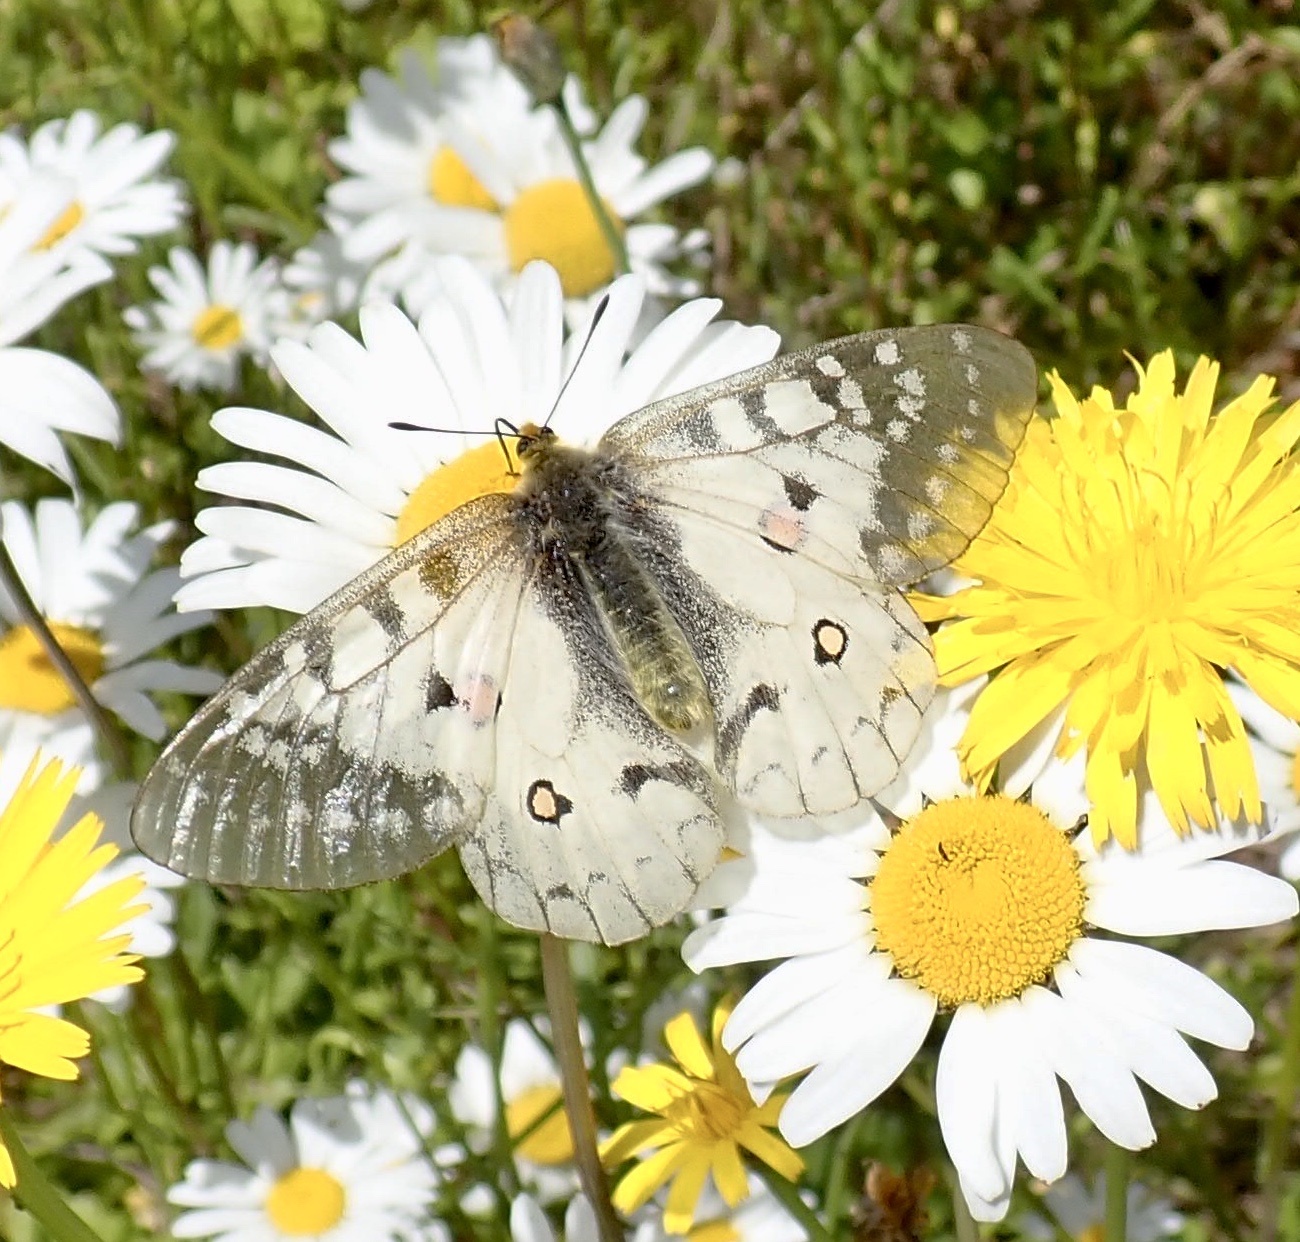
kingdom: Animalia
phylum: Arthropoda
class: Insecta
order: Lepidoptera
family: Papilionidae
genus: Parnassius
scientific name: Parnassius clodius
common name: American apollo
